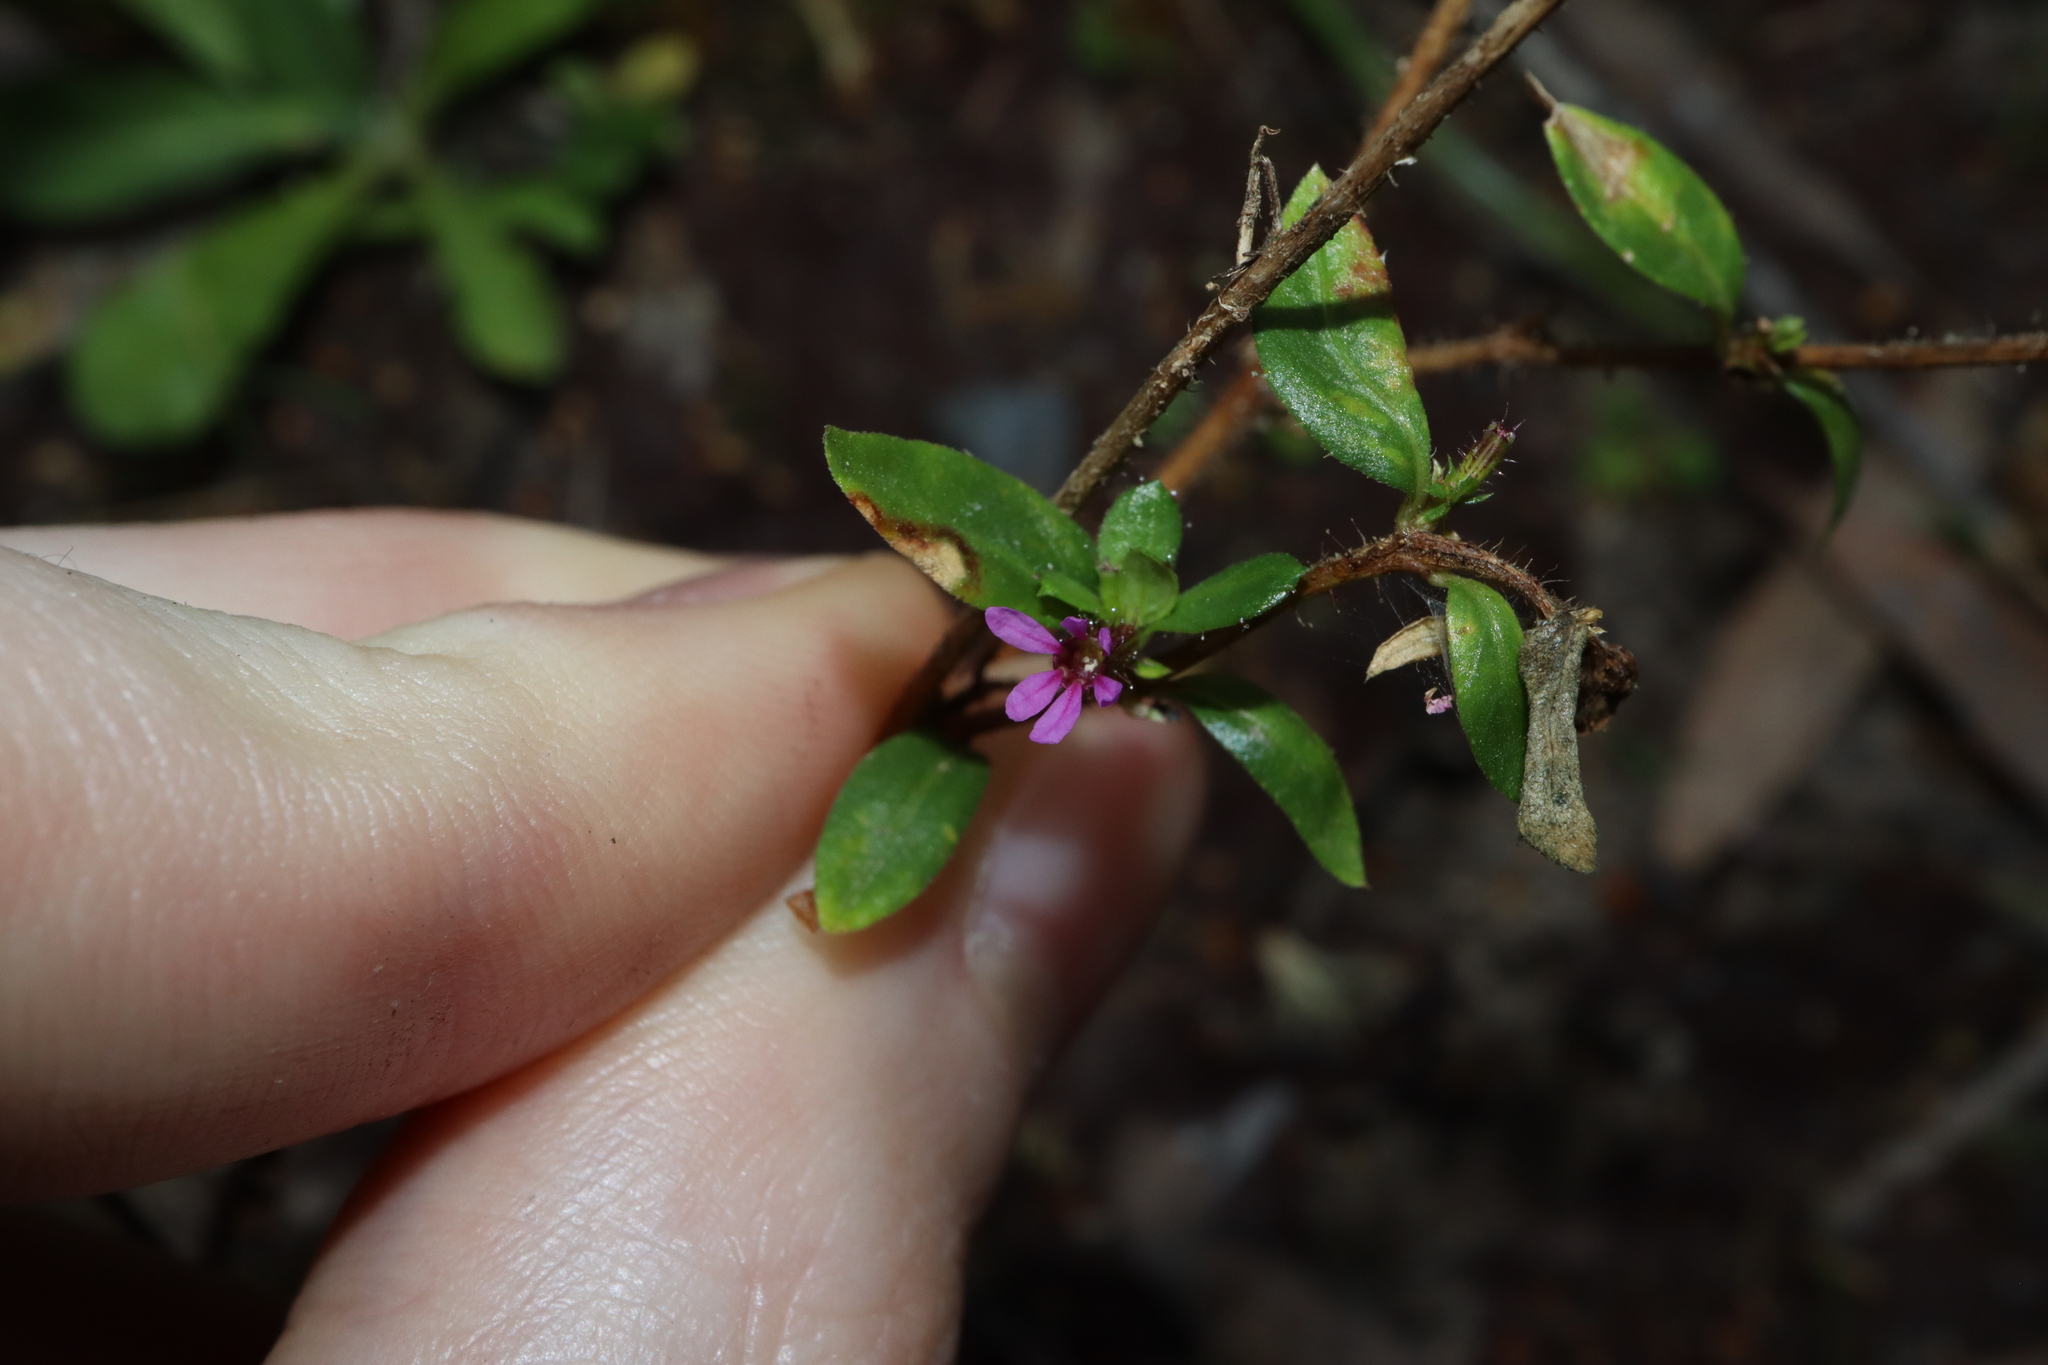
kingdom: Plantae
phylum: Tracheophyta
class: Magnoliopsida
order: Myrtales
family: Lythraceae
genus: Cuphea
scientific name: Cuphea carthagenensis
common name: Colombian waxweed
